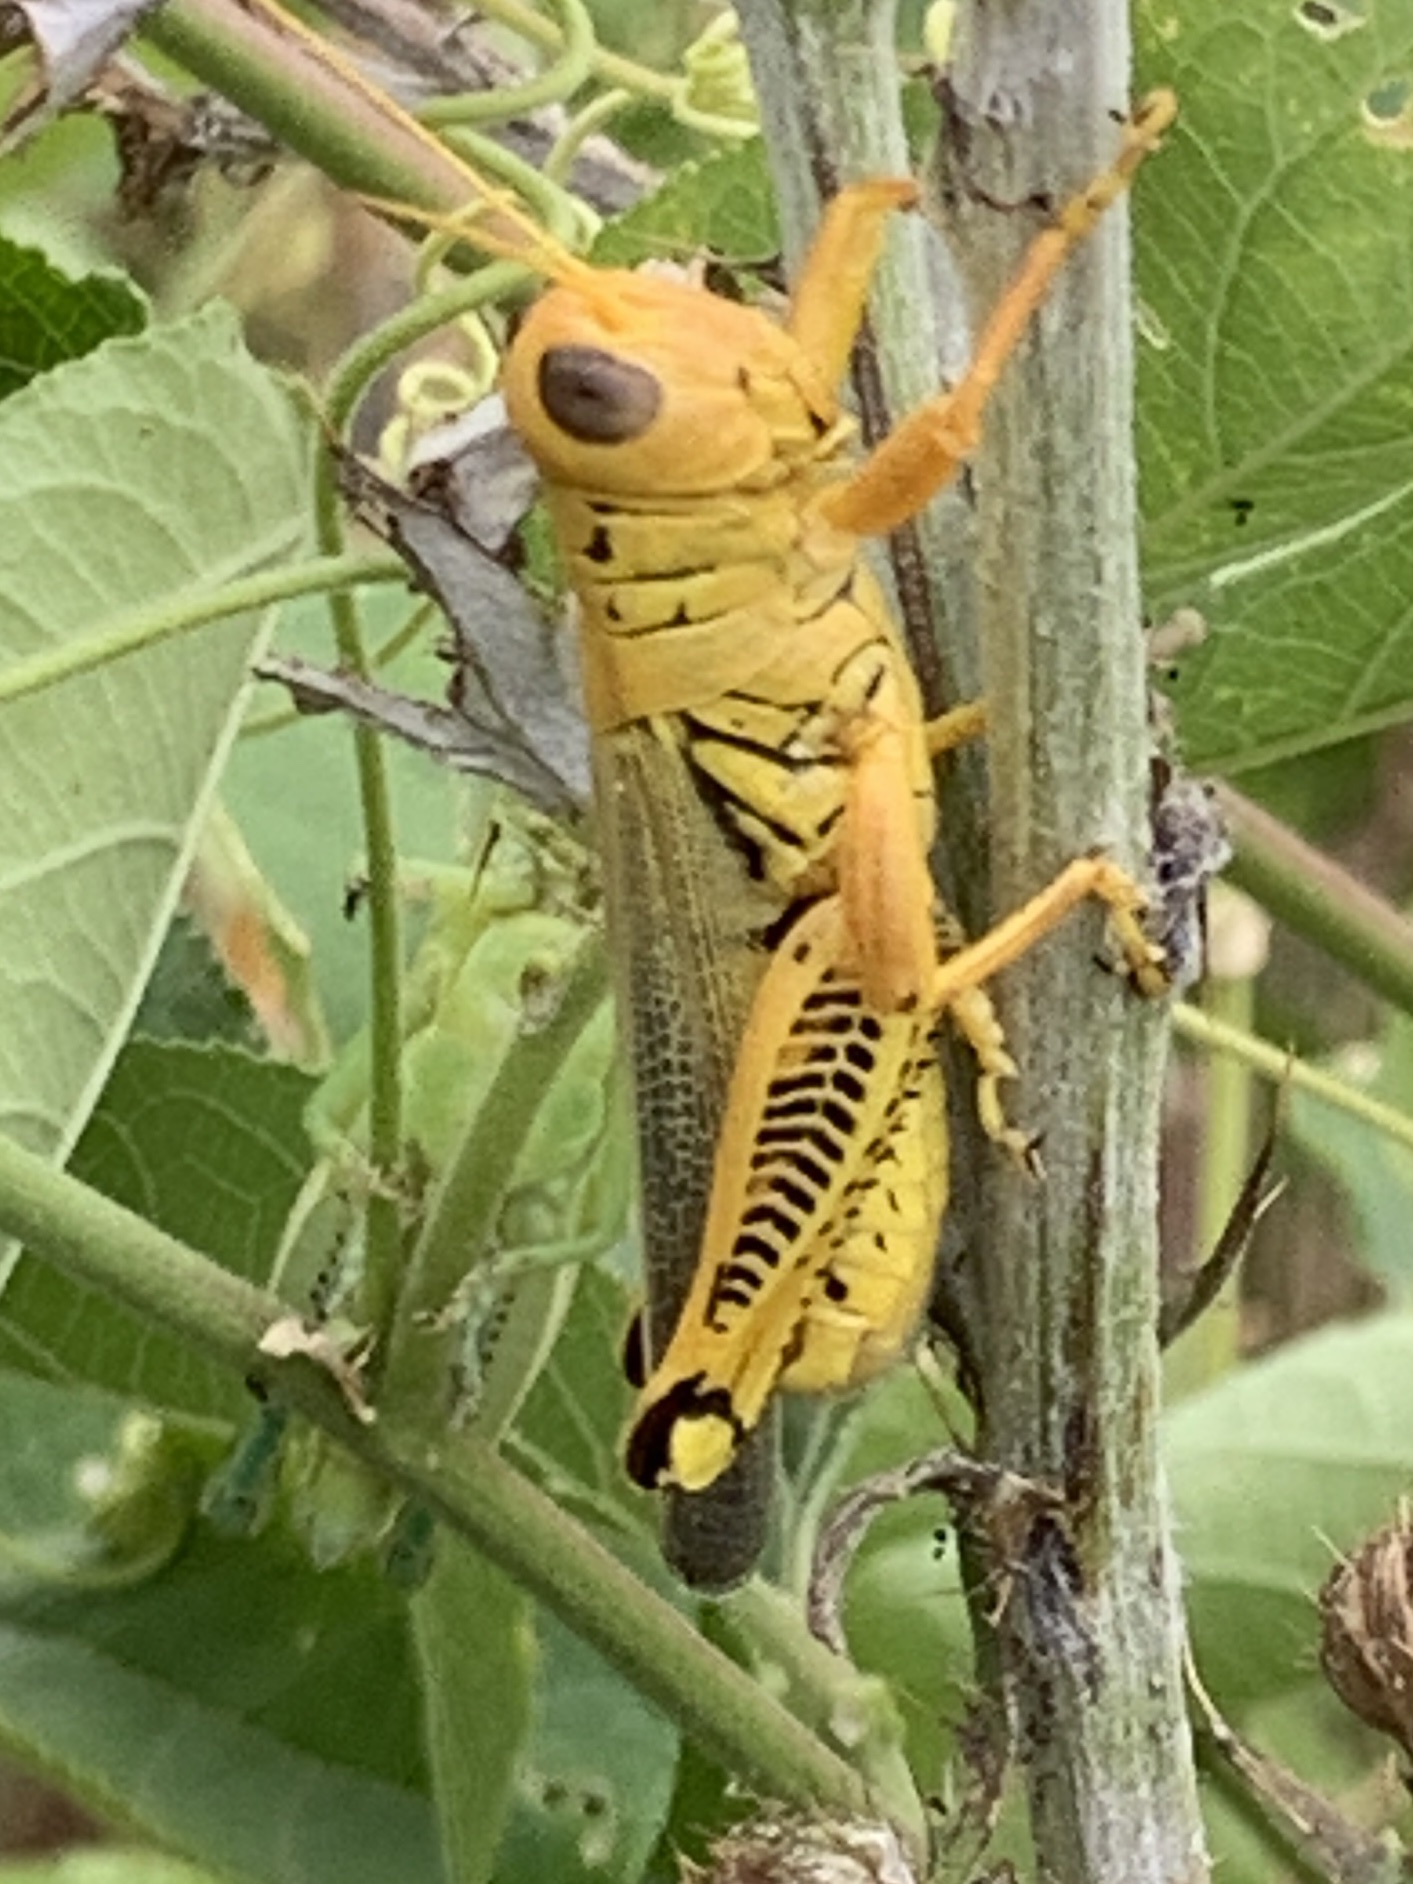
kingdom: Animalia
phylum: Arthropoda
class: Insecta
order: Orthoptera
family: Acrididae
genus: Melanoplus
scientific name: Melanoplus differentialis
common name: Differential grasshopper
